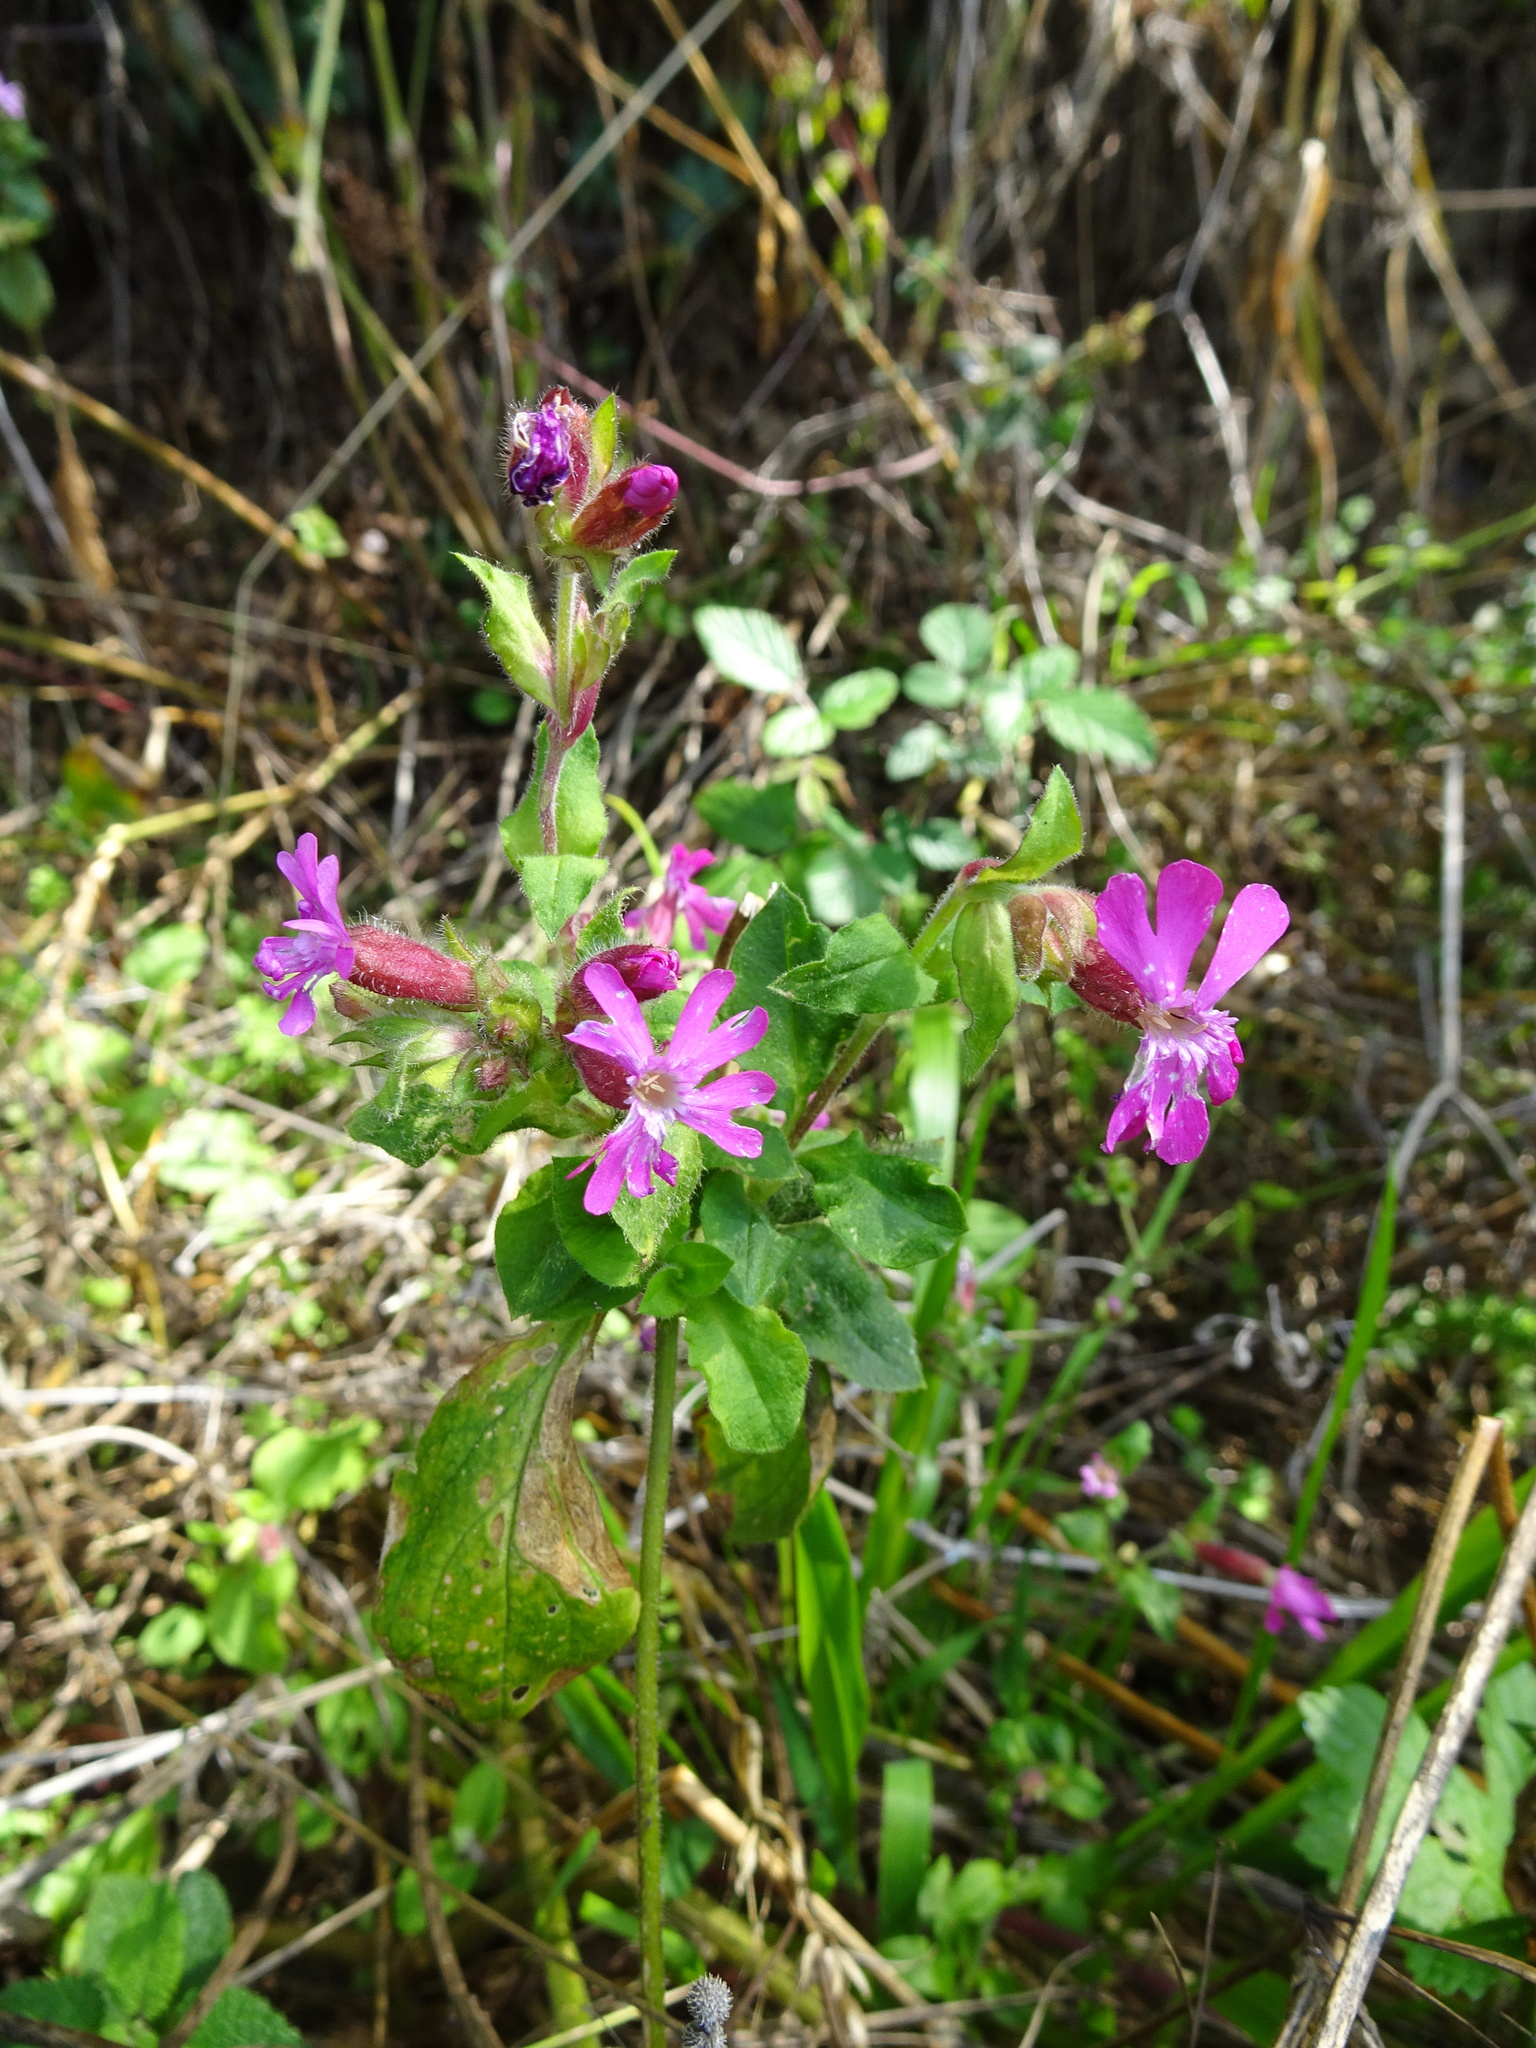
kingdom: Plantae
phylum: Tracheophyta
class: Magnoliopsida
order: Caryophyllales
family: Caryophyllaceae
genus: Silene
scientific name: Silene dioica
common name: Red campion
